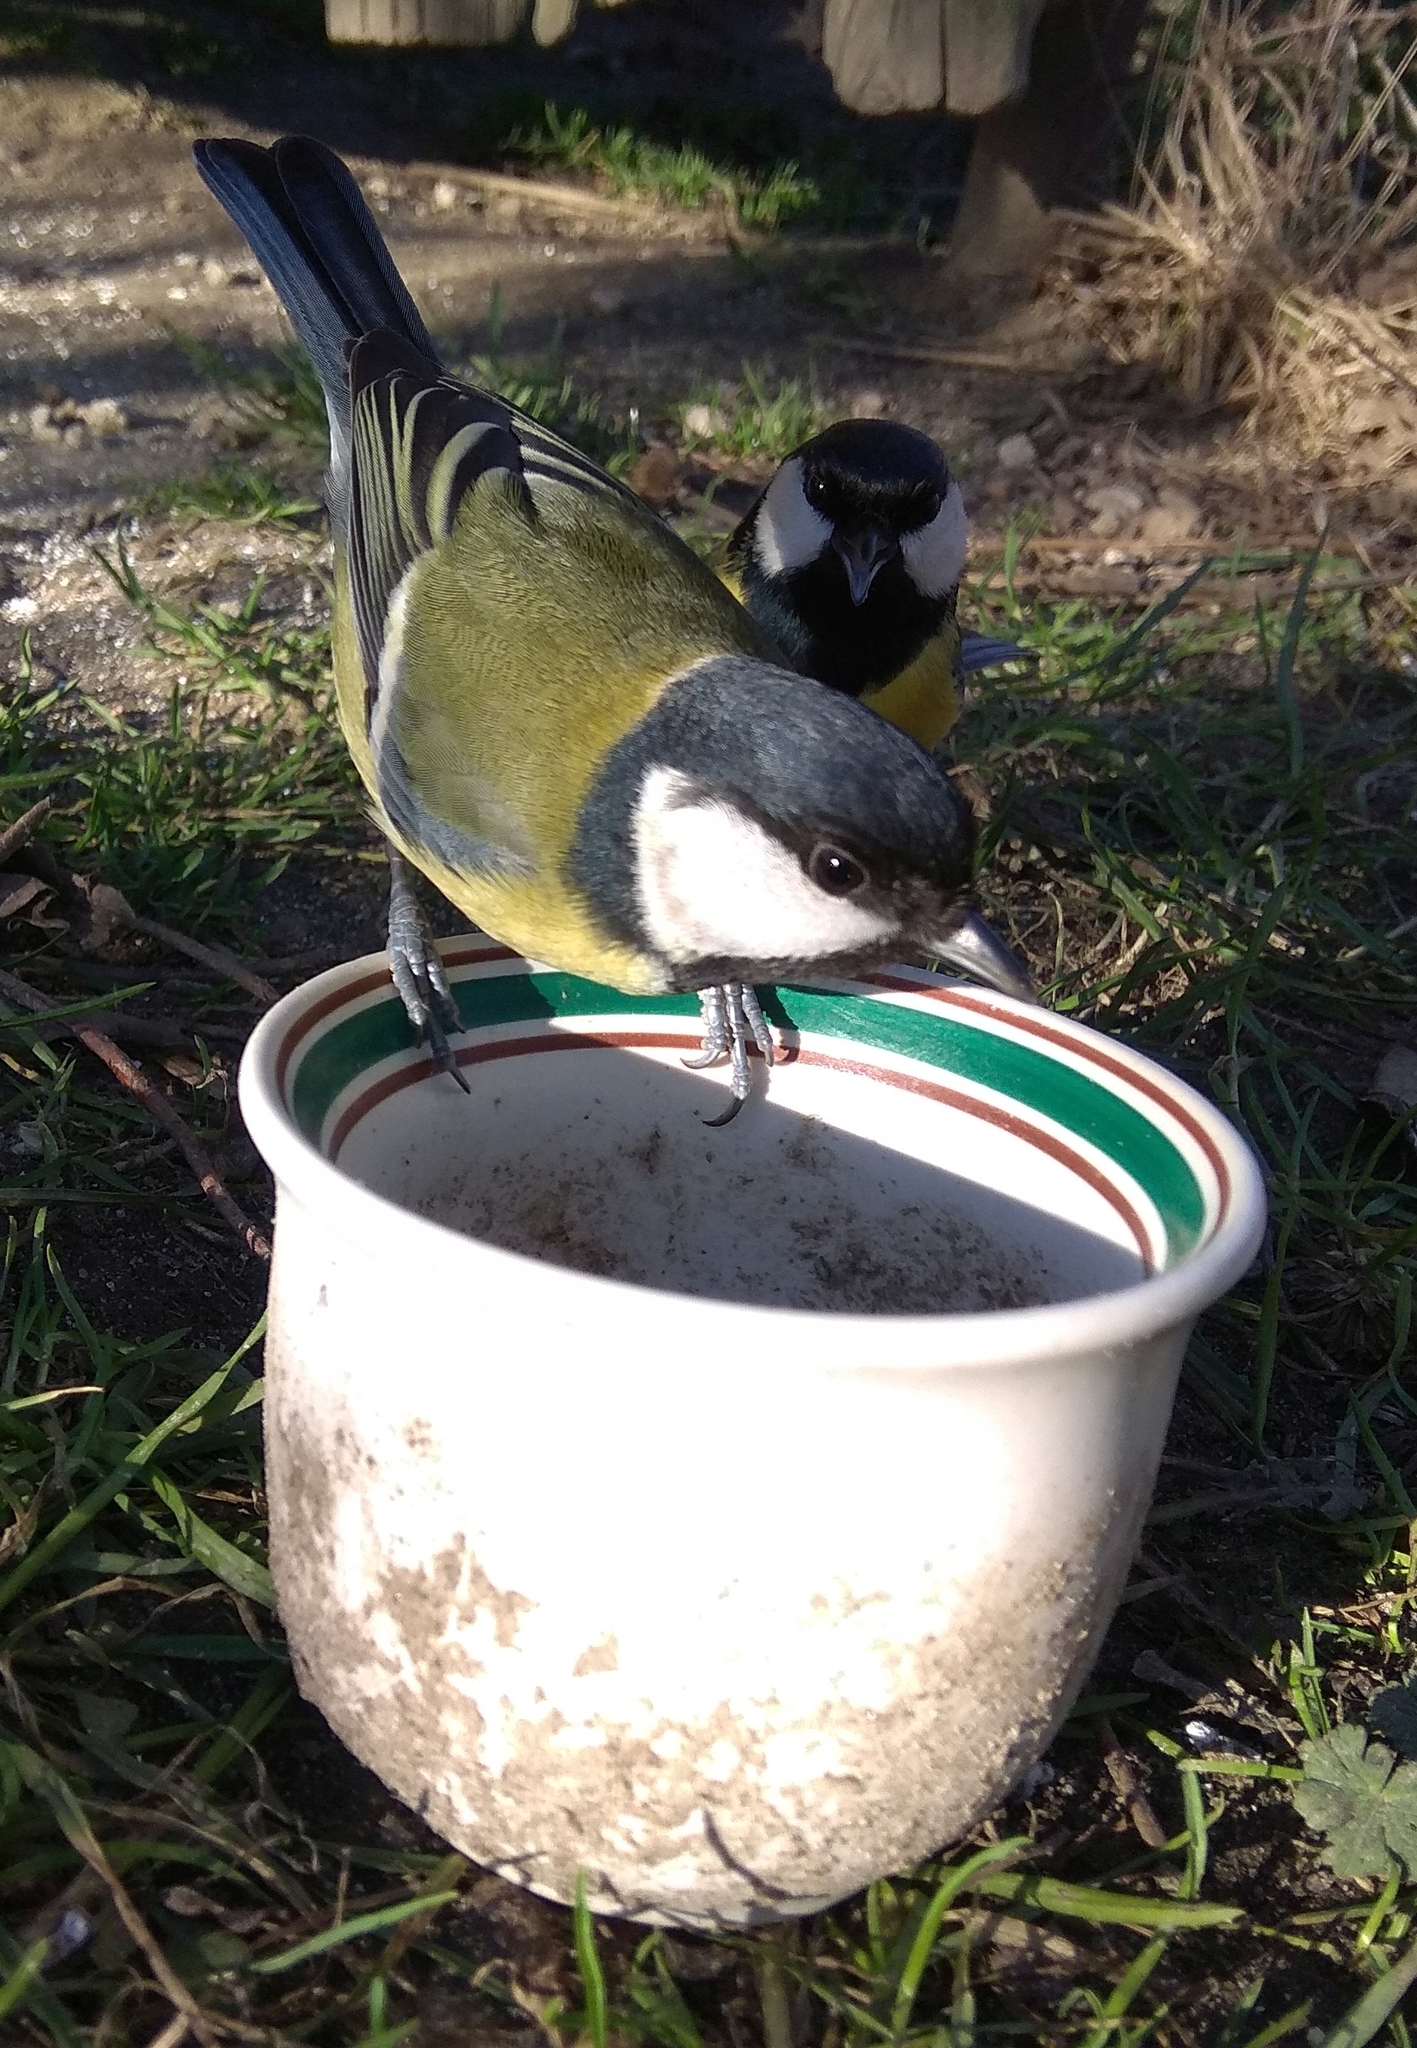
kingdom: Animalia
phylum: Chordata
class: Aves
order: Passeriformes
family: Paridae
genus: Parus
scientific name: Parus major
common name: Great tit
